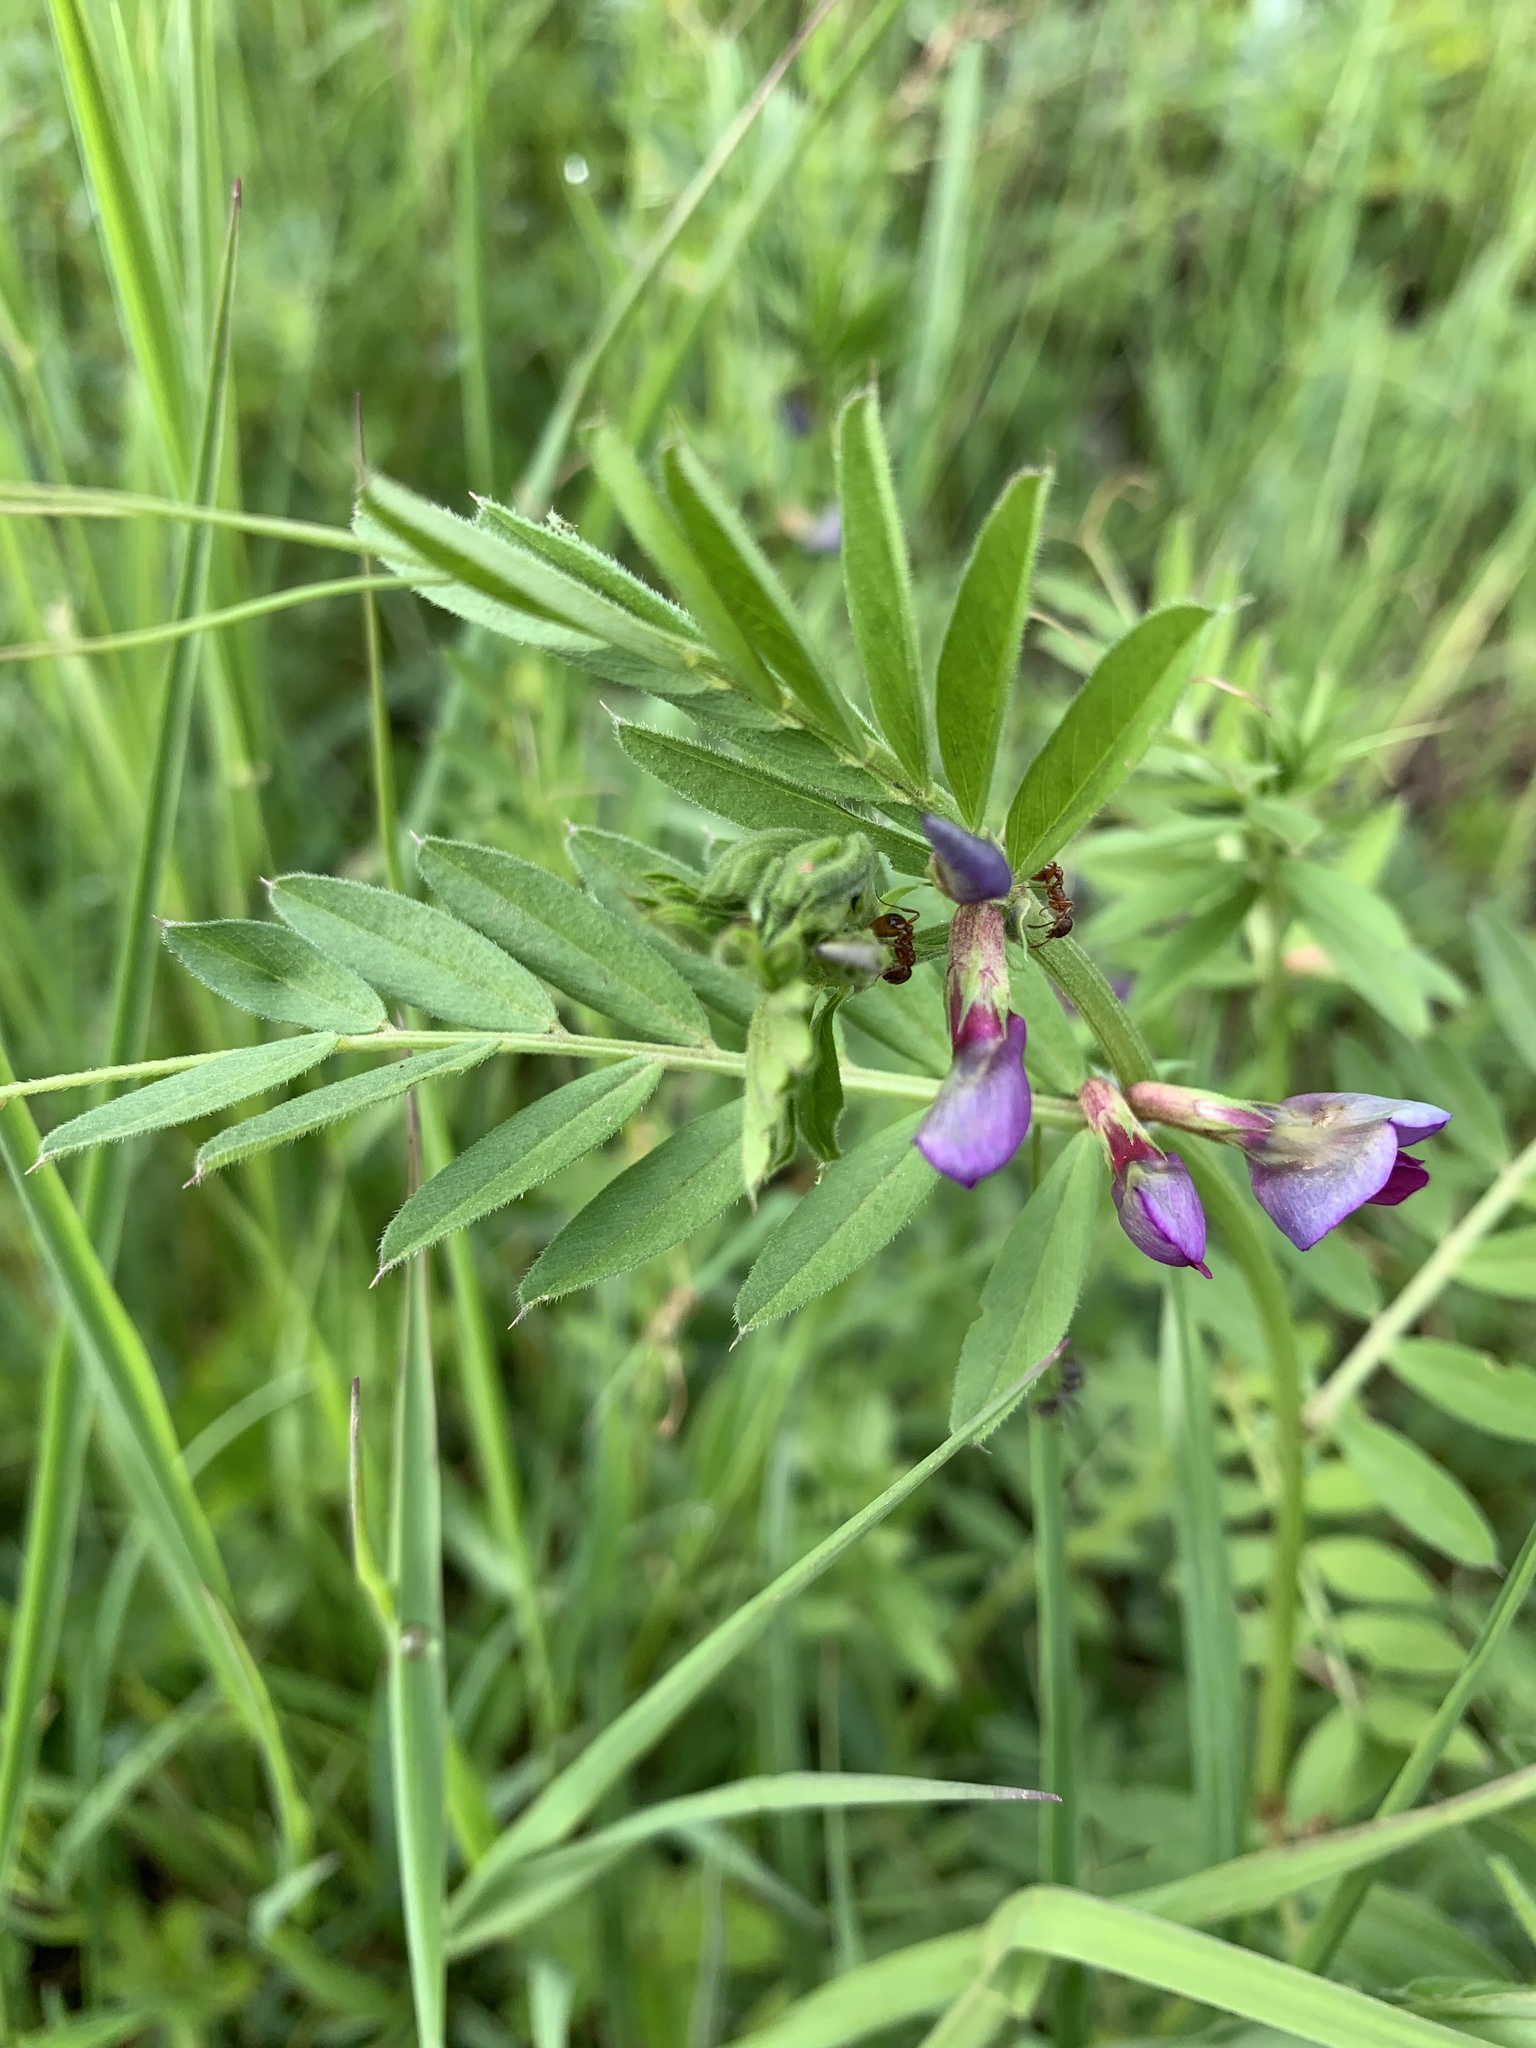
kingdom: Plantae
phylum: Tracheophyta
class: Magnoliopsida
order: Fabales
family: Fabaceae
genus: Vicia
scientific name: Vicia sativa
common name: Garden vetch
